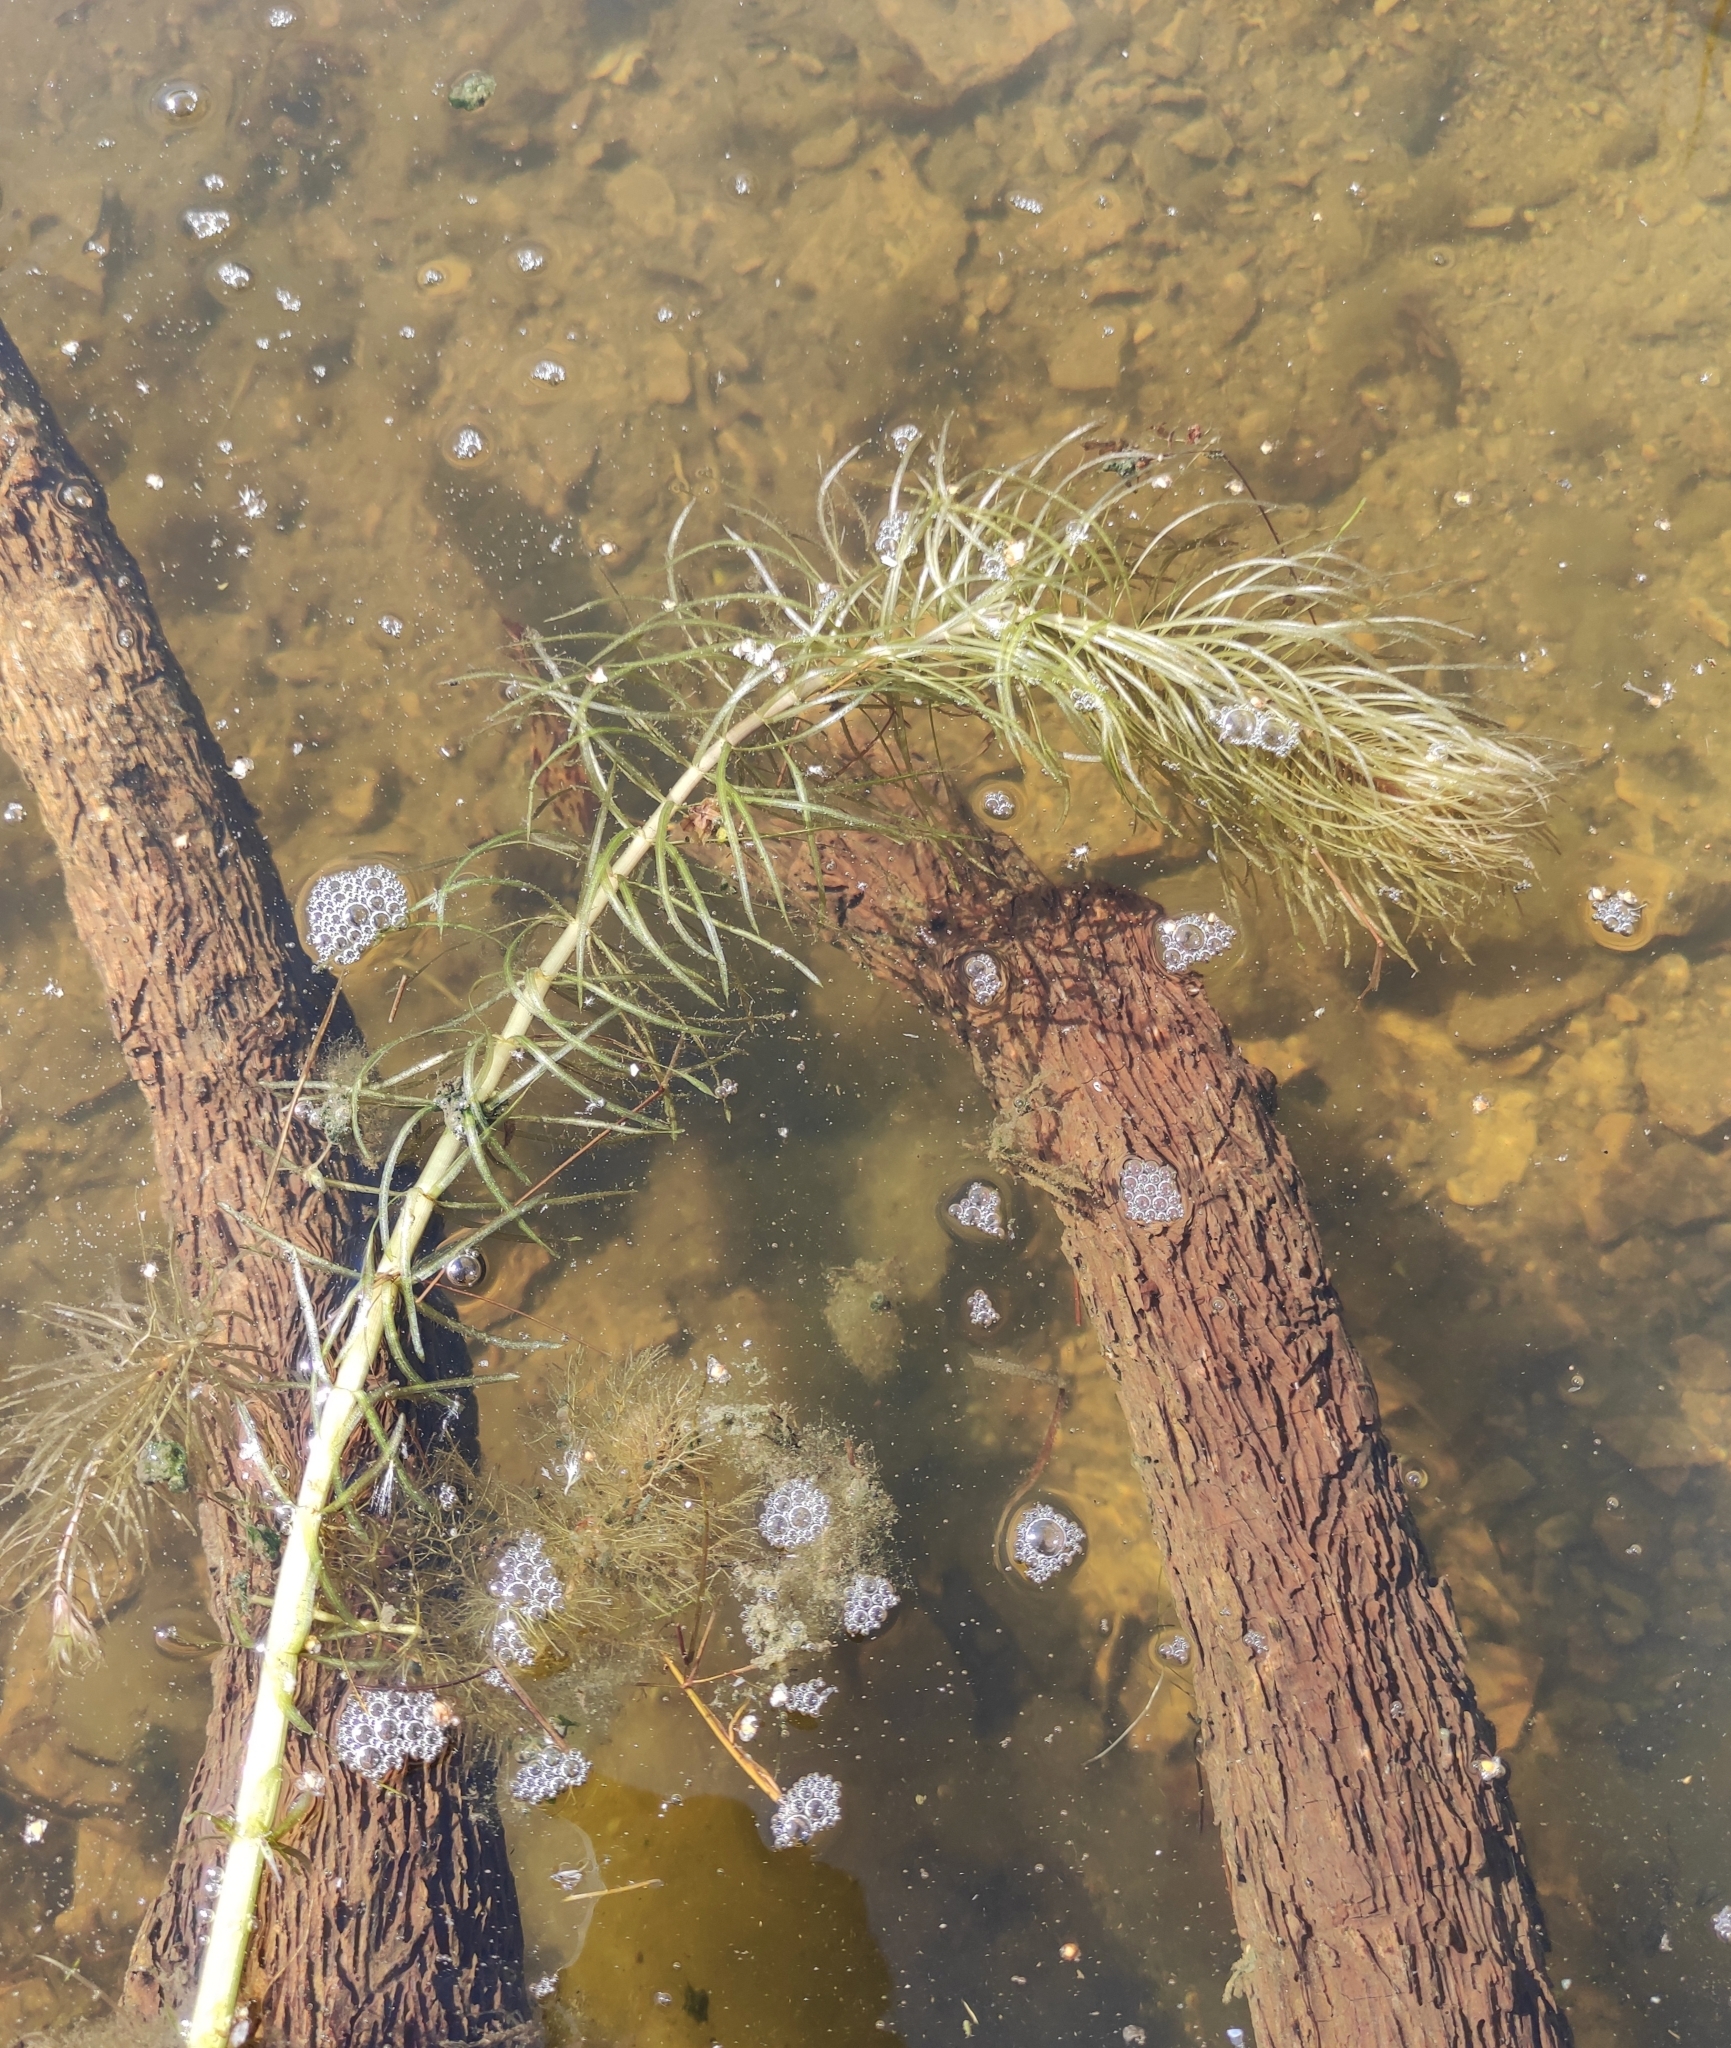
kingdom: Plantae
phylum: Tracheophyta
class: Magnoliopsida
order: Lamiales
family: Plantaginaceae
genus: Hippuris
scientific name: Hippuris vulgaris
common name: Mare's-tail
